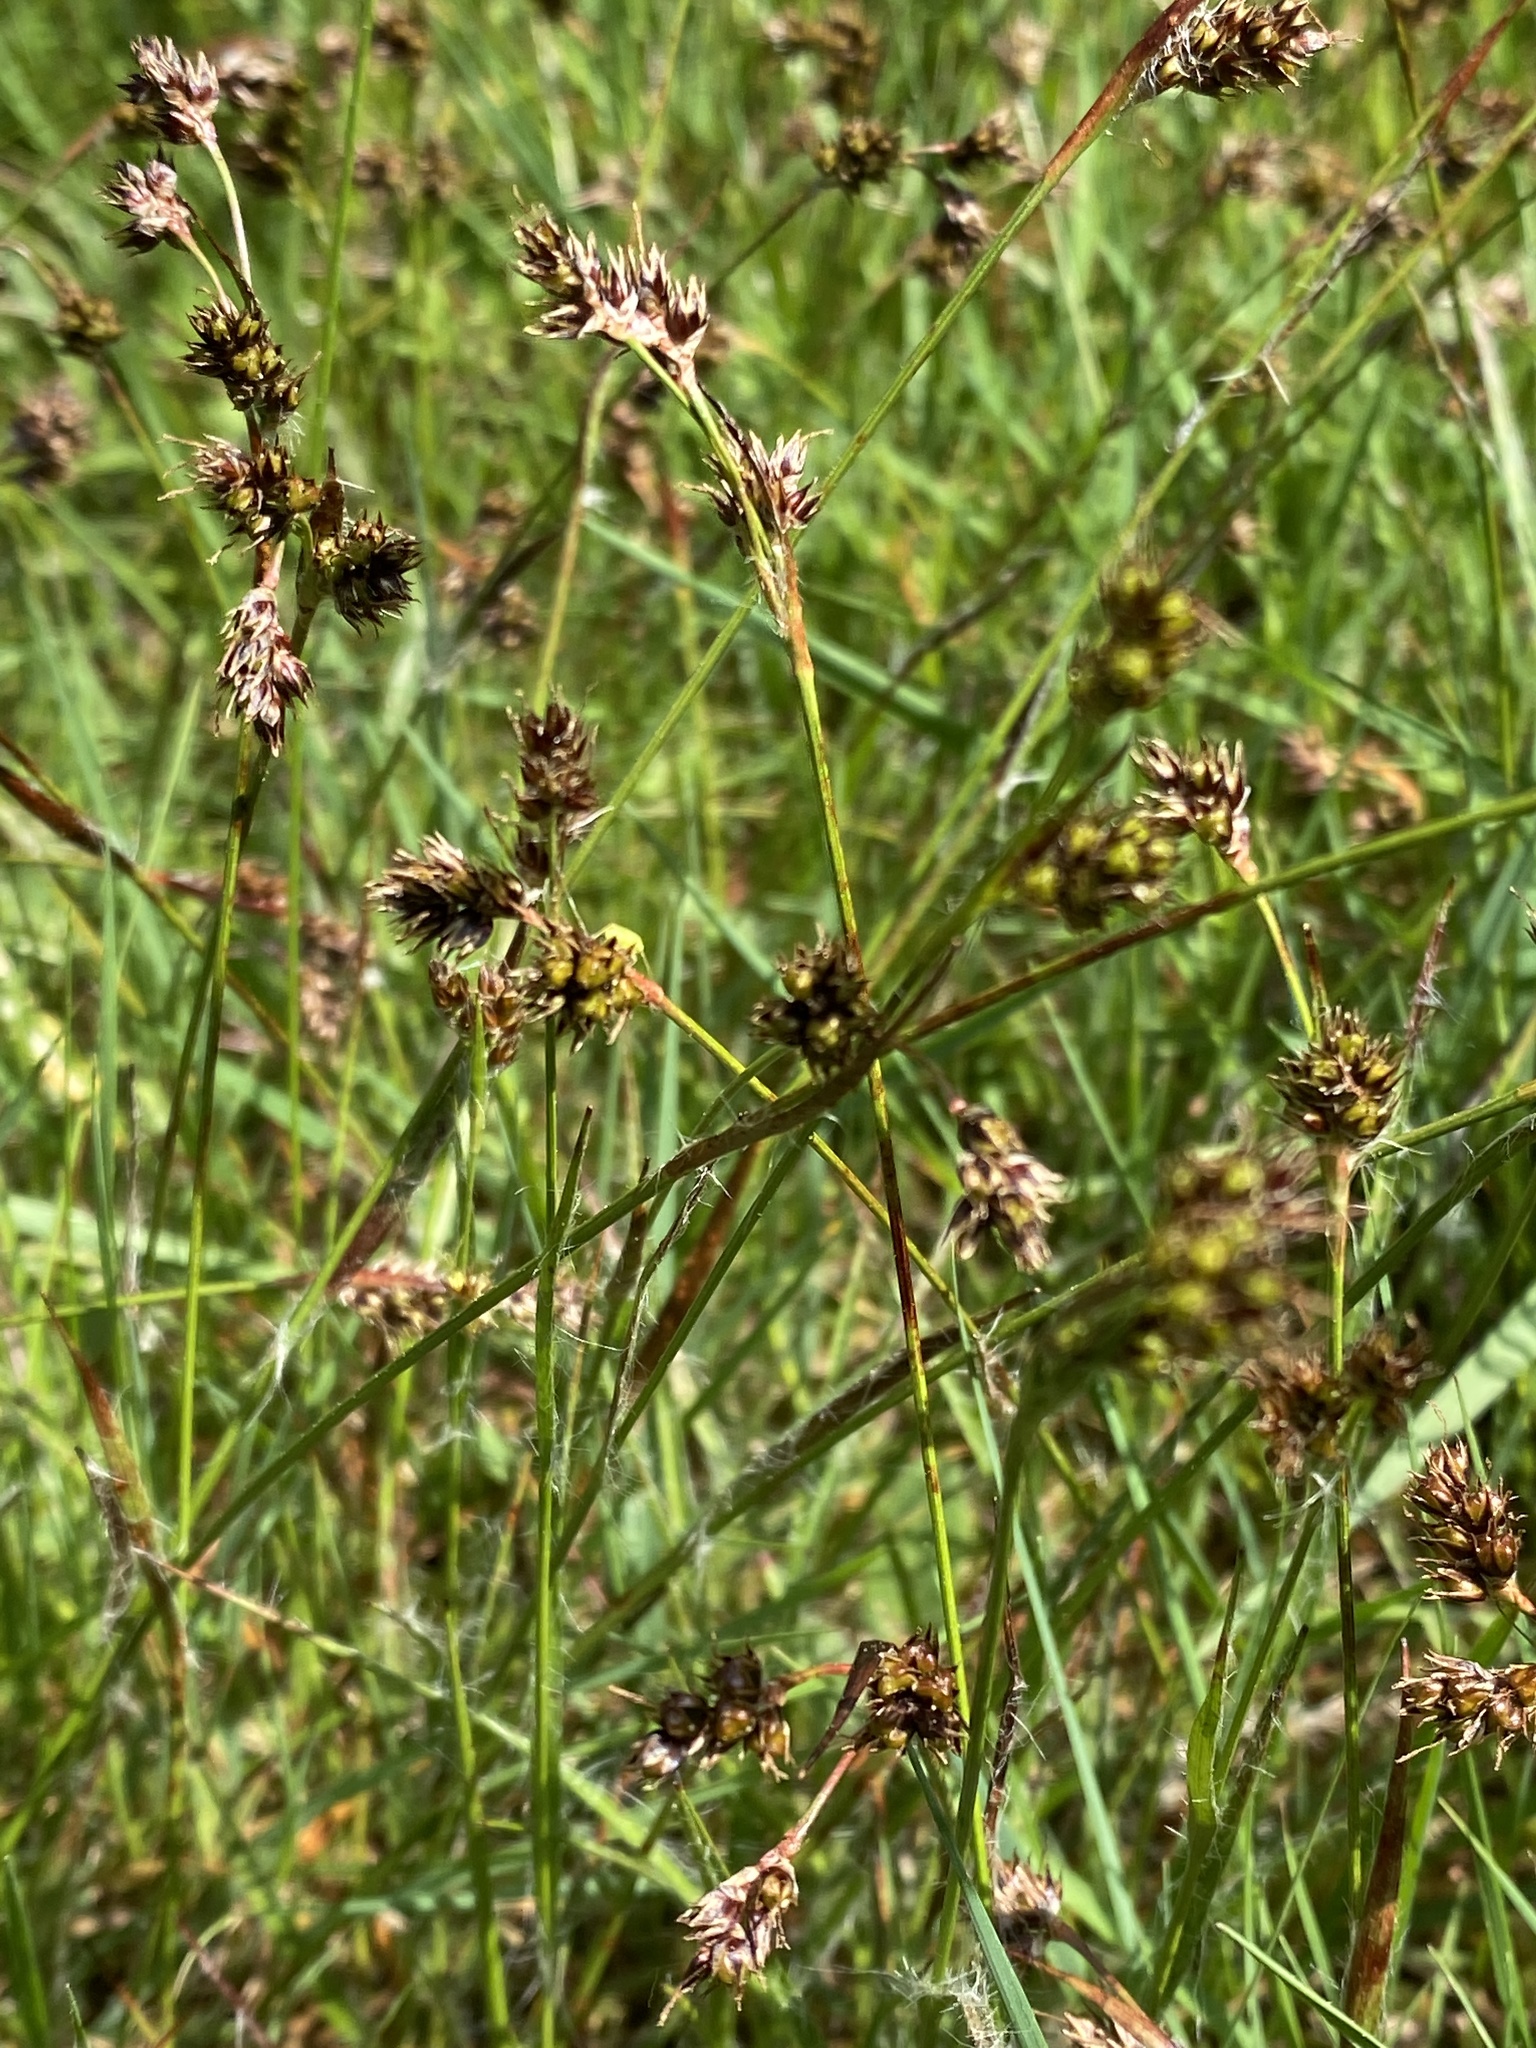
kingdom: Plantae
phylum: Tracheophyta
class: Liliopsida
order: Poales
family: Juncaceae
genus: Luzula
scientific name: Luzula campestris
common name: Field wood-rush
